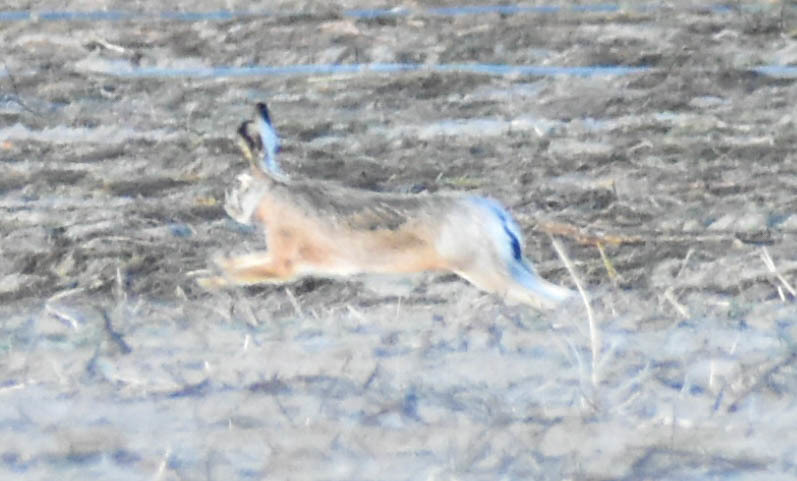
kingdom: Animalia
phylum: Chordata
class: Mammalia
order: Lagomorpha
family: Leporidae
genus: Lepus
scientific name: Lepus europaeus
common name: European hare
